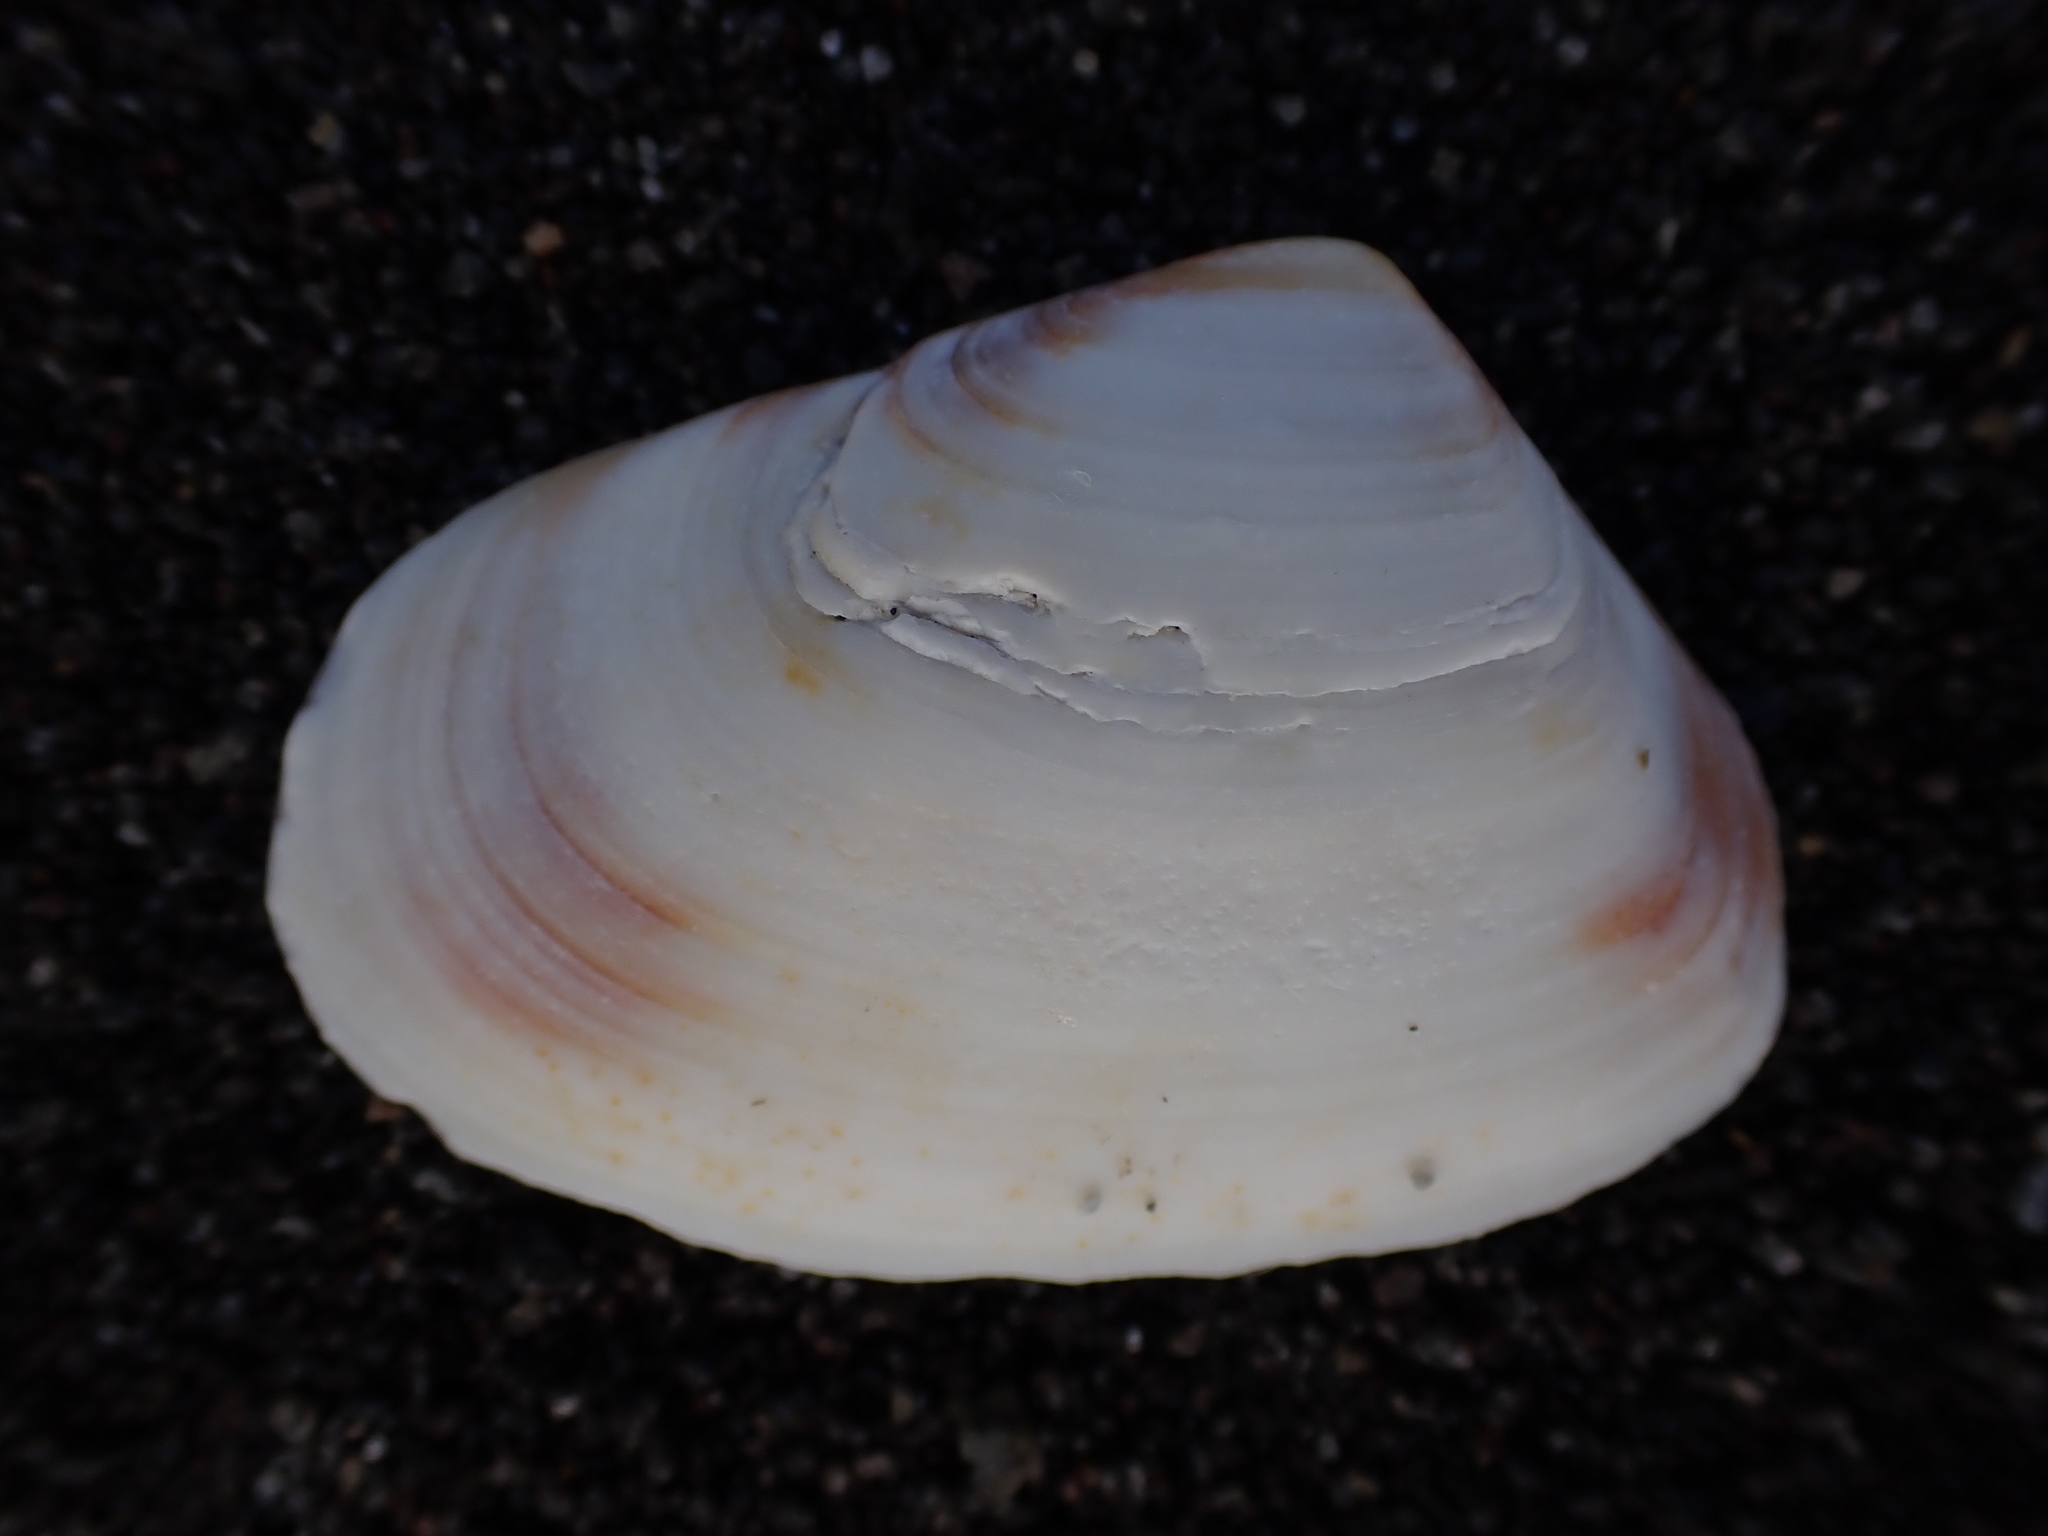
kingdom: Animalia
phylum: Mollusca
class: Bivalvia
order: Venerida
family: Mesodesmatidae
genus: Paphies
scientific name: Paphies subtriangulata
